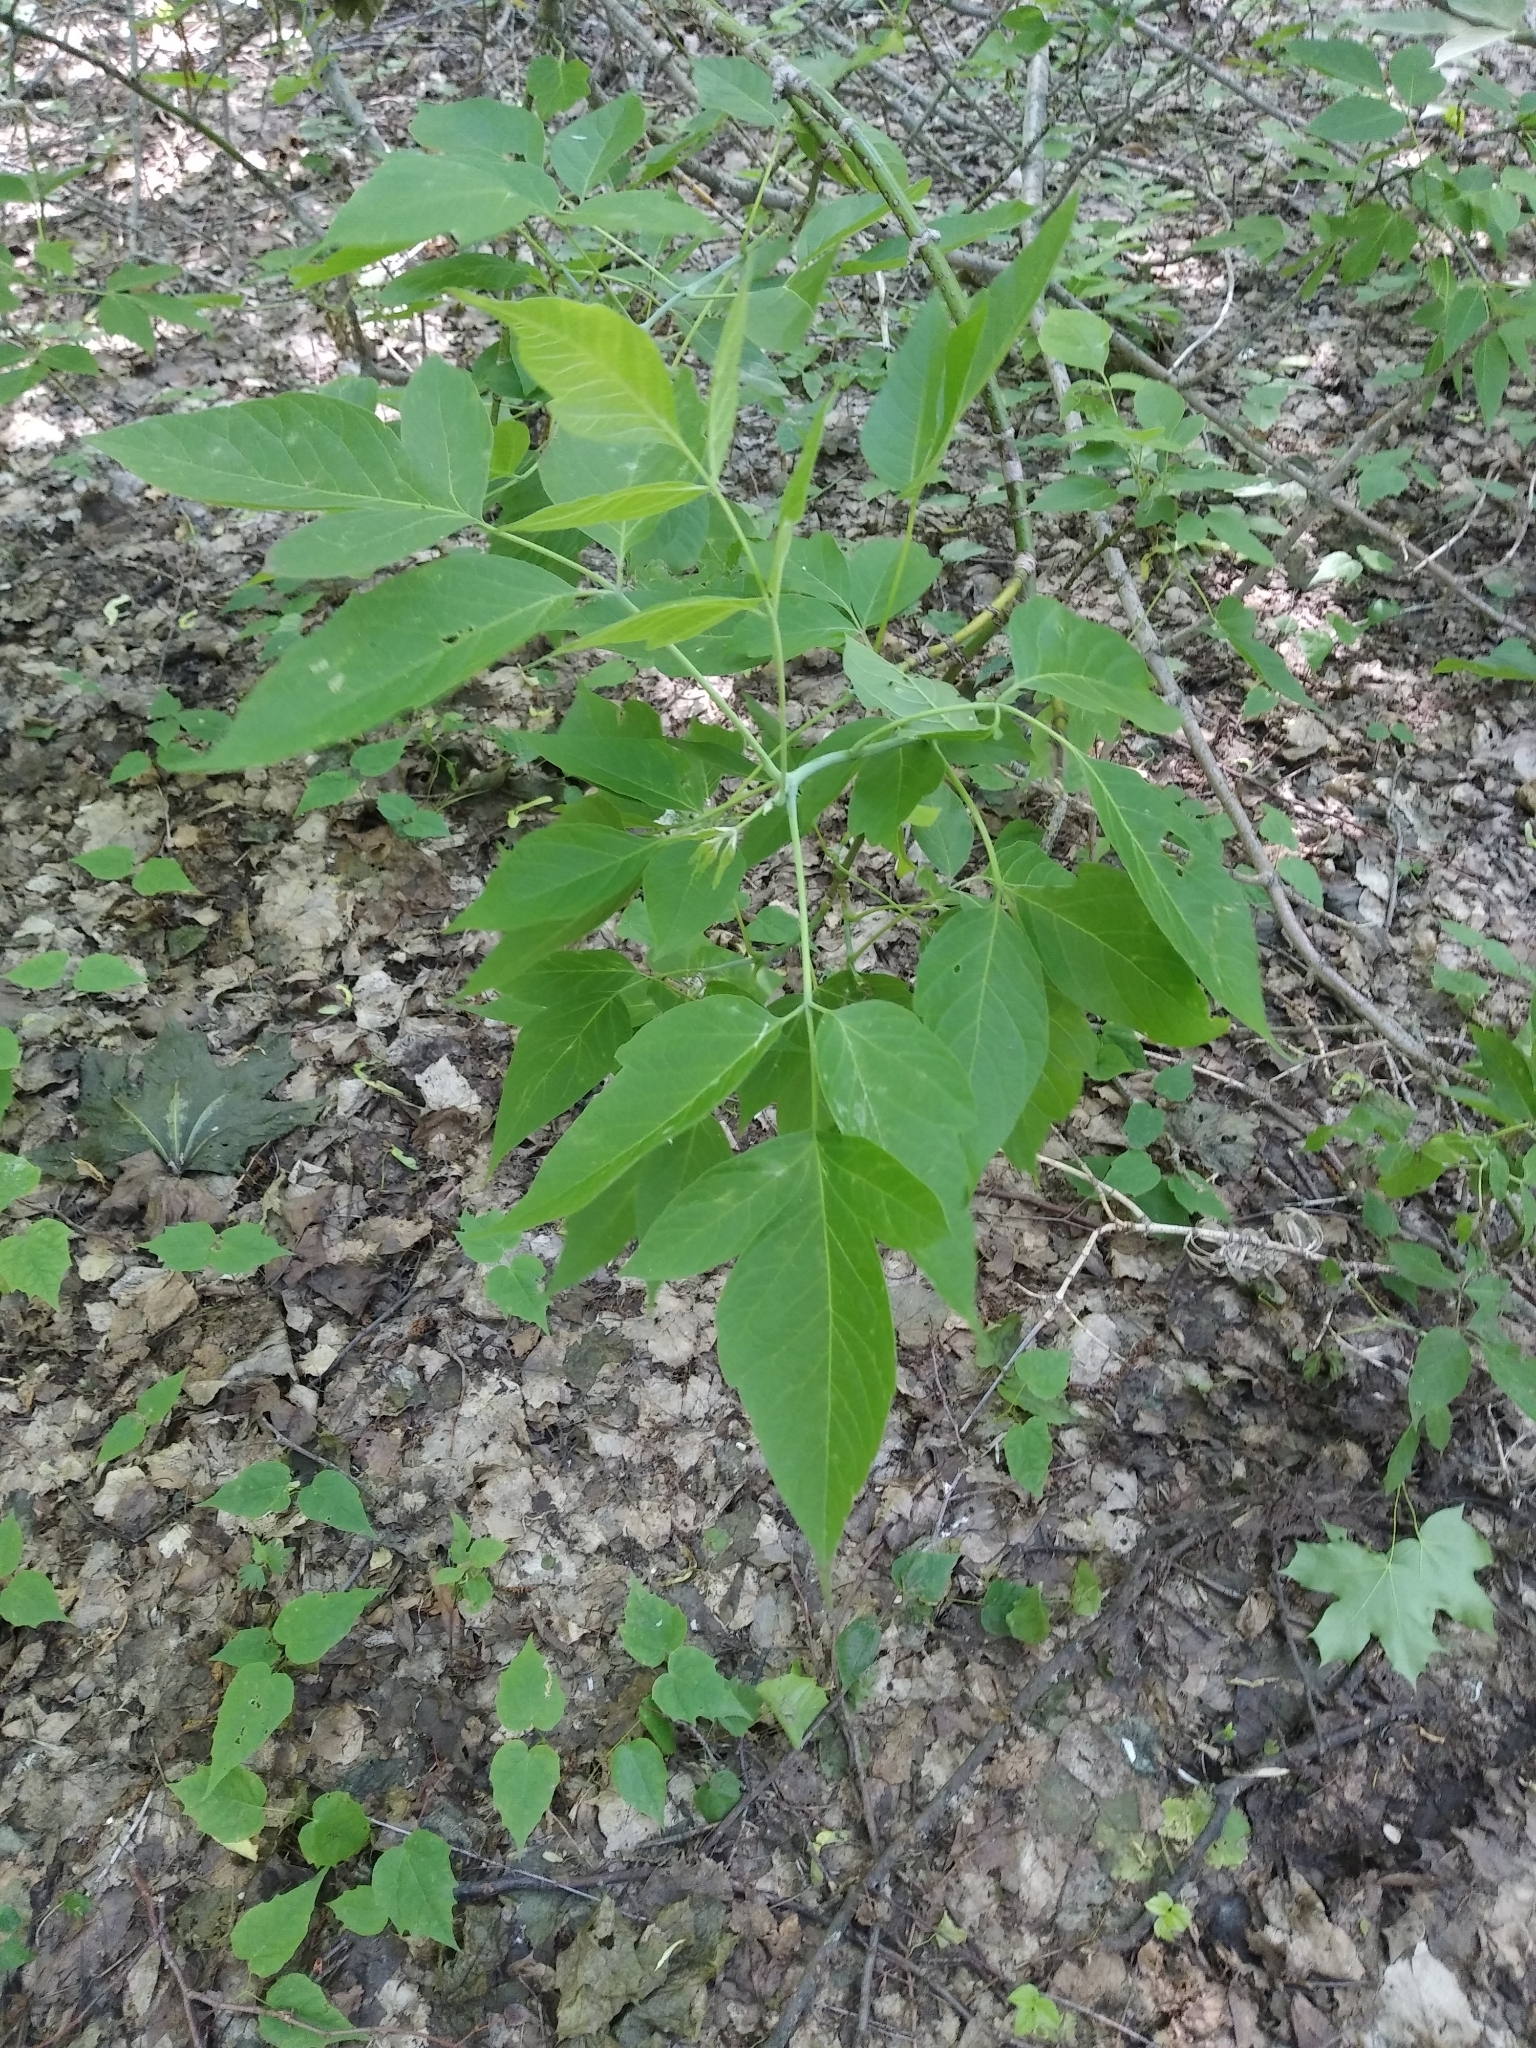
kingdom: Plantae
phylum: Tracheophyta
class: Magnoliopsida
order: Sapindales
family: Sapindaceae
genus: Acer
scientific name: Acer negundo
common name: Ashleaf maple
